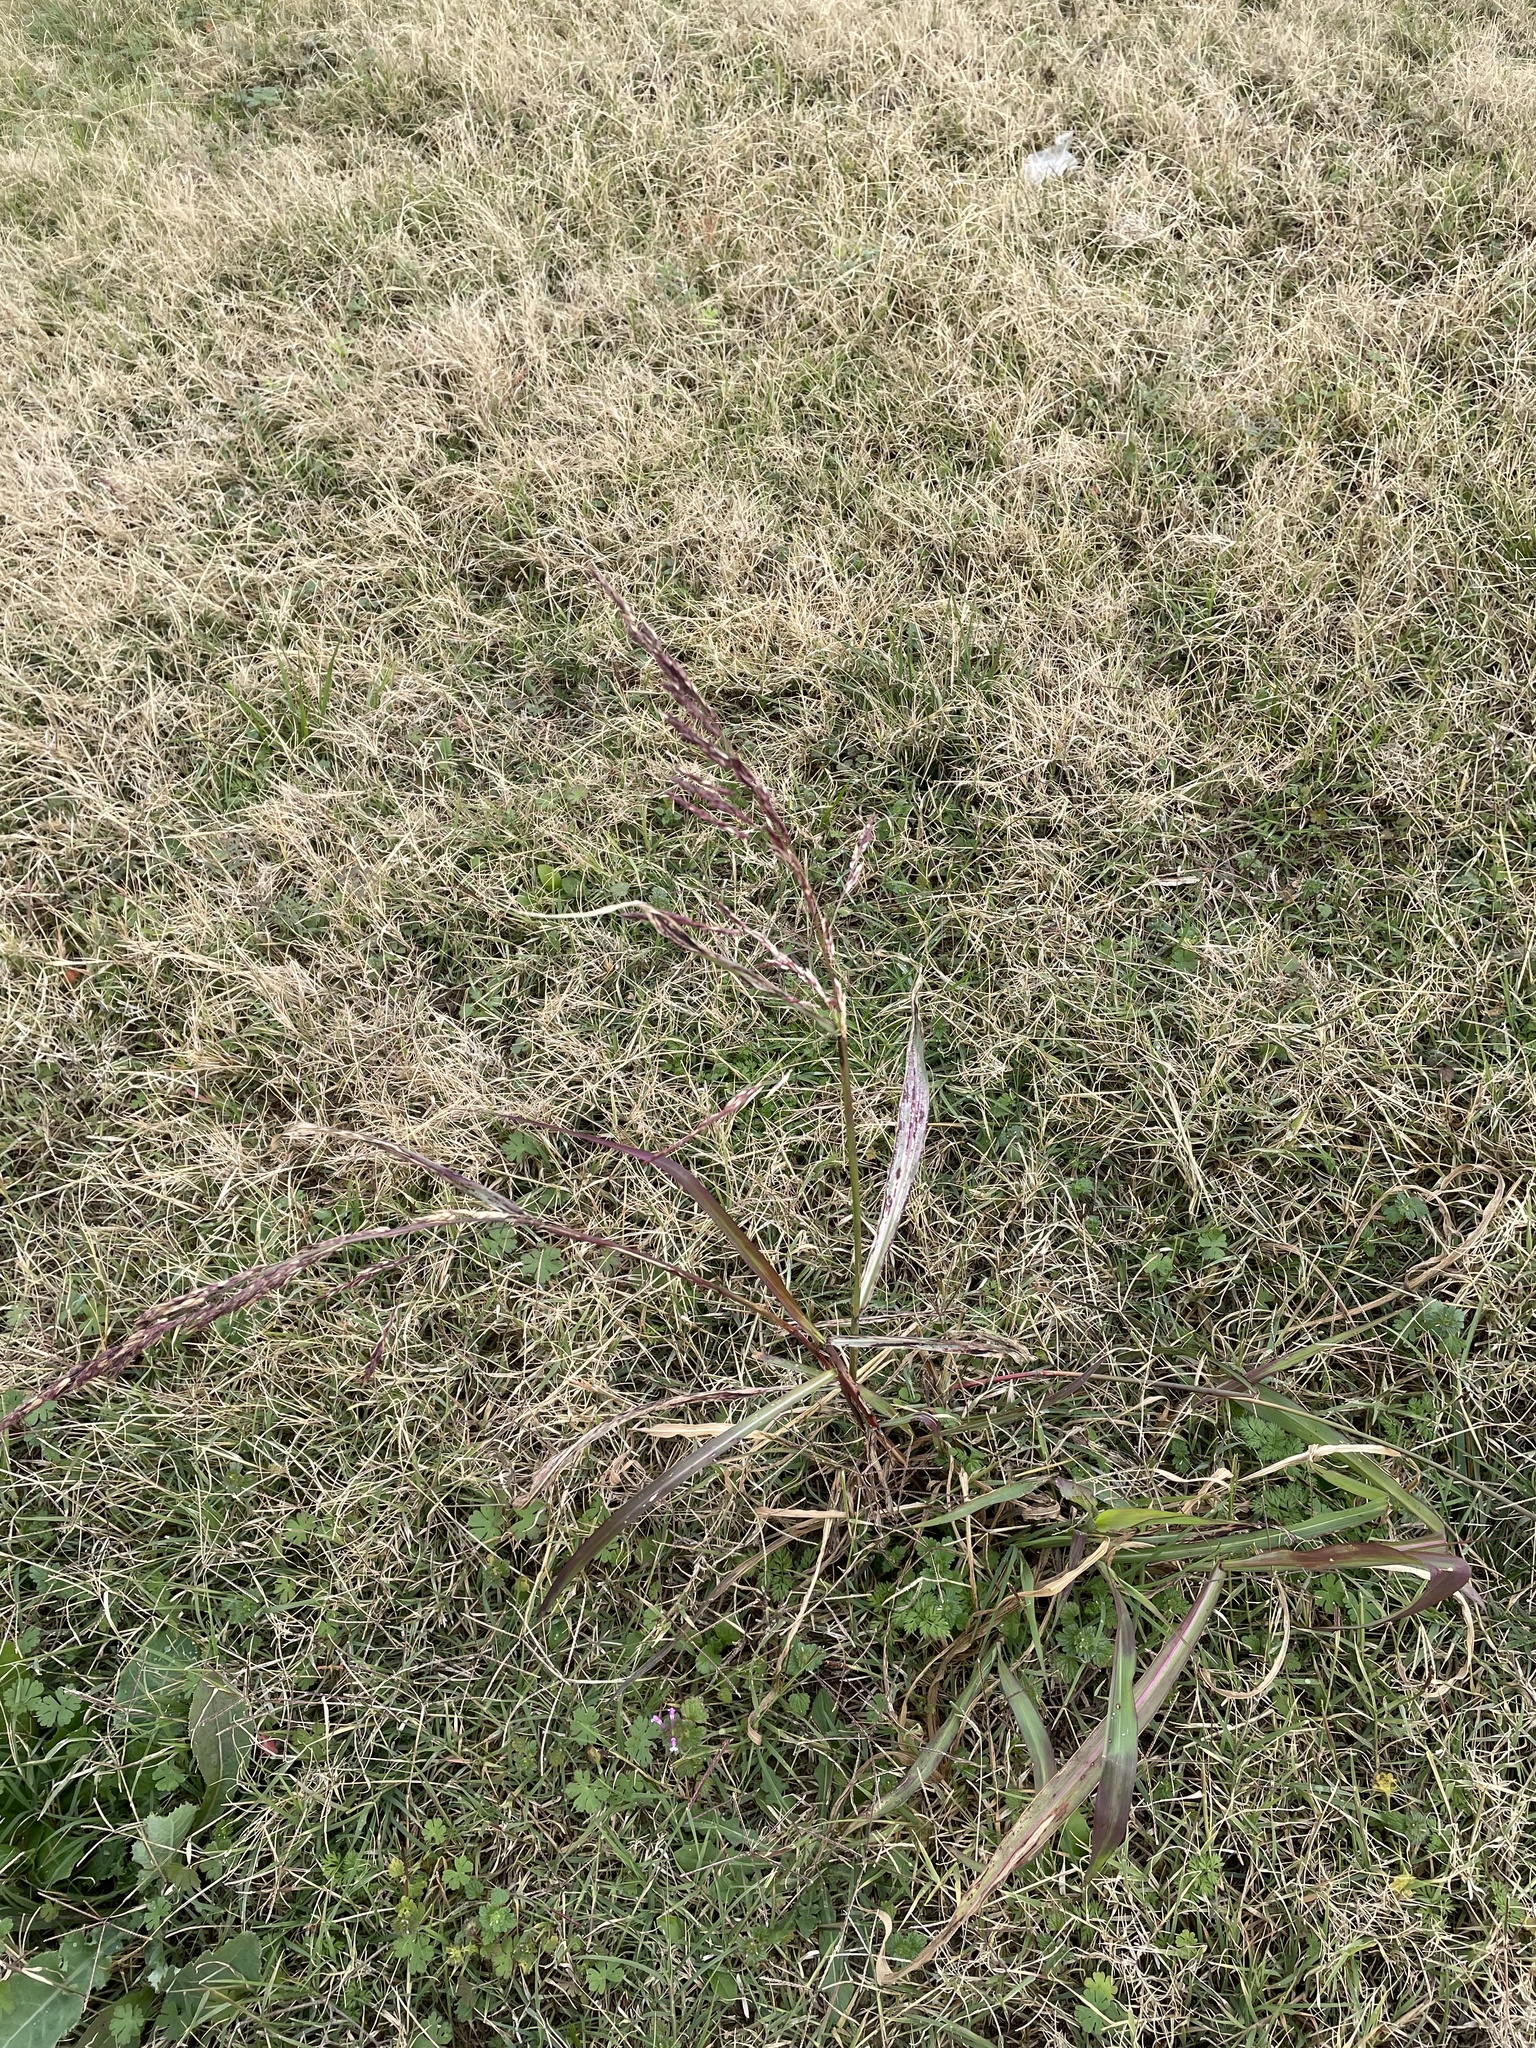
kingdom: Plantae
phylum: Tracheophyta
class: Liliopsida
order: Poales
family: Poaceae
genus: Sorghum
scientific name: Sorghum halepense
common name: Johnson-grass
